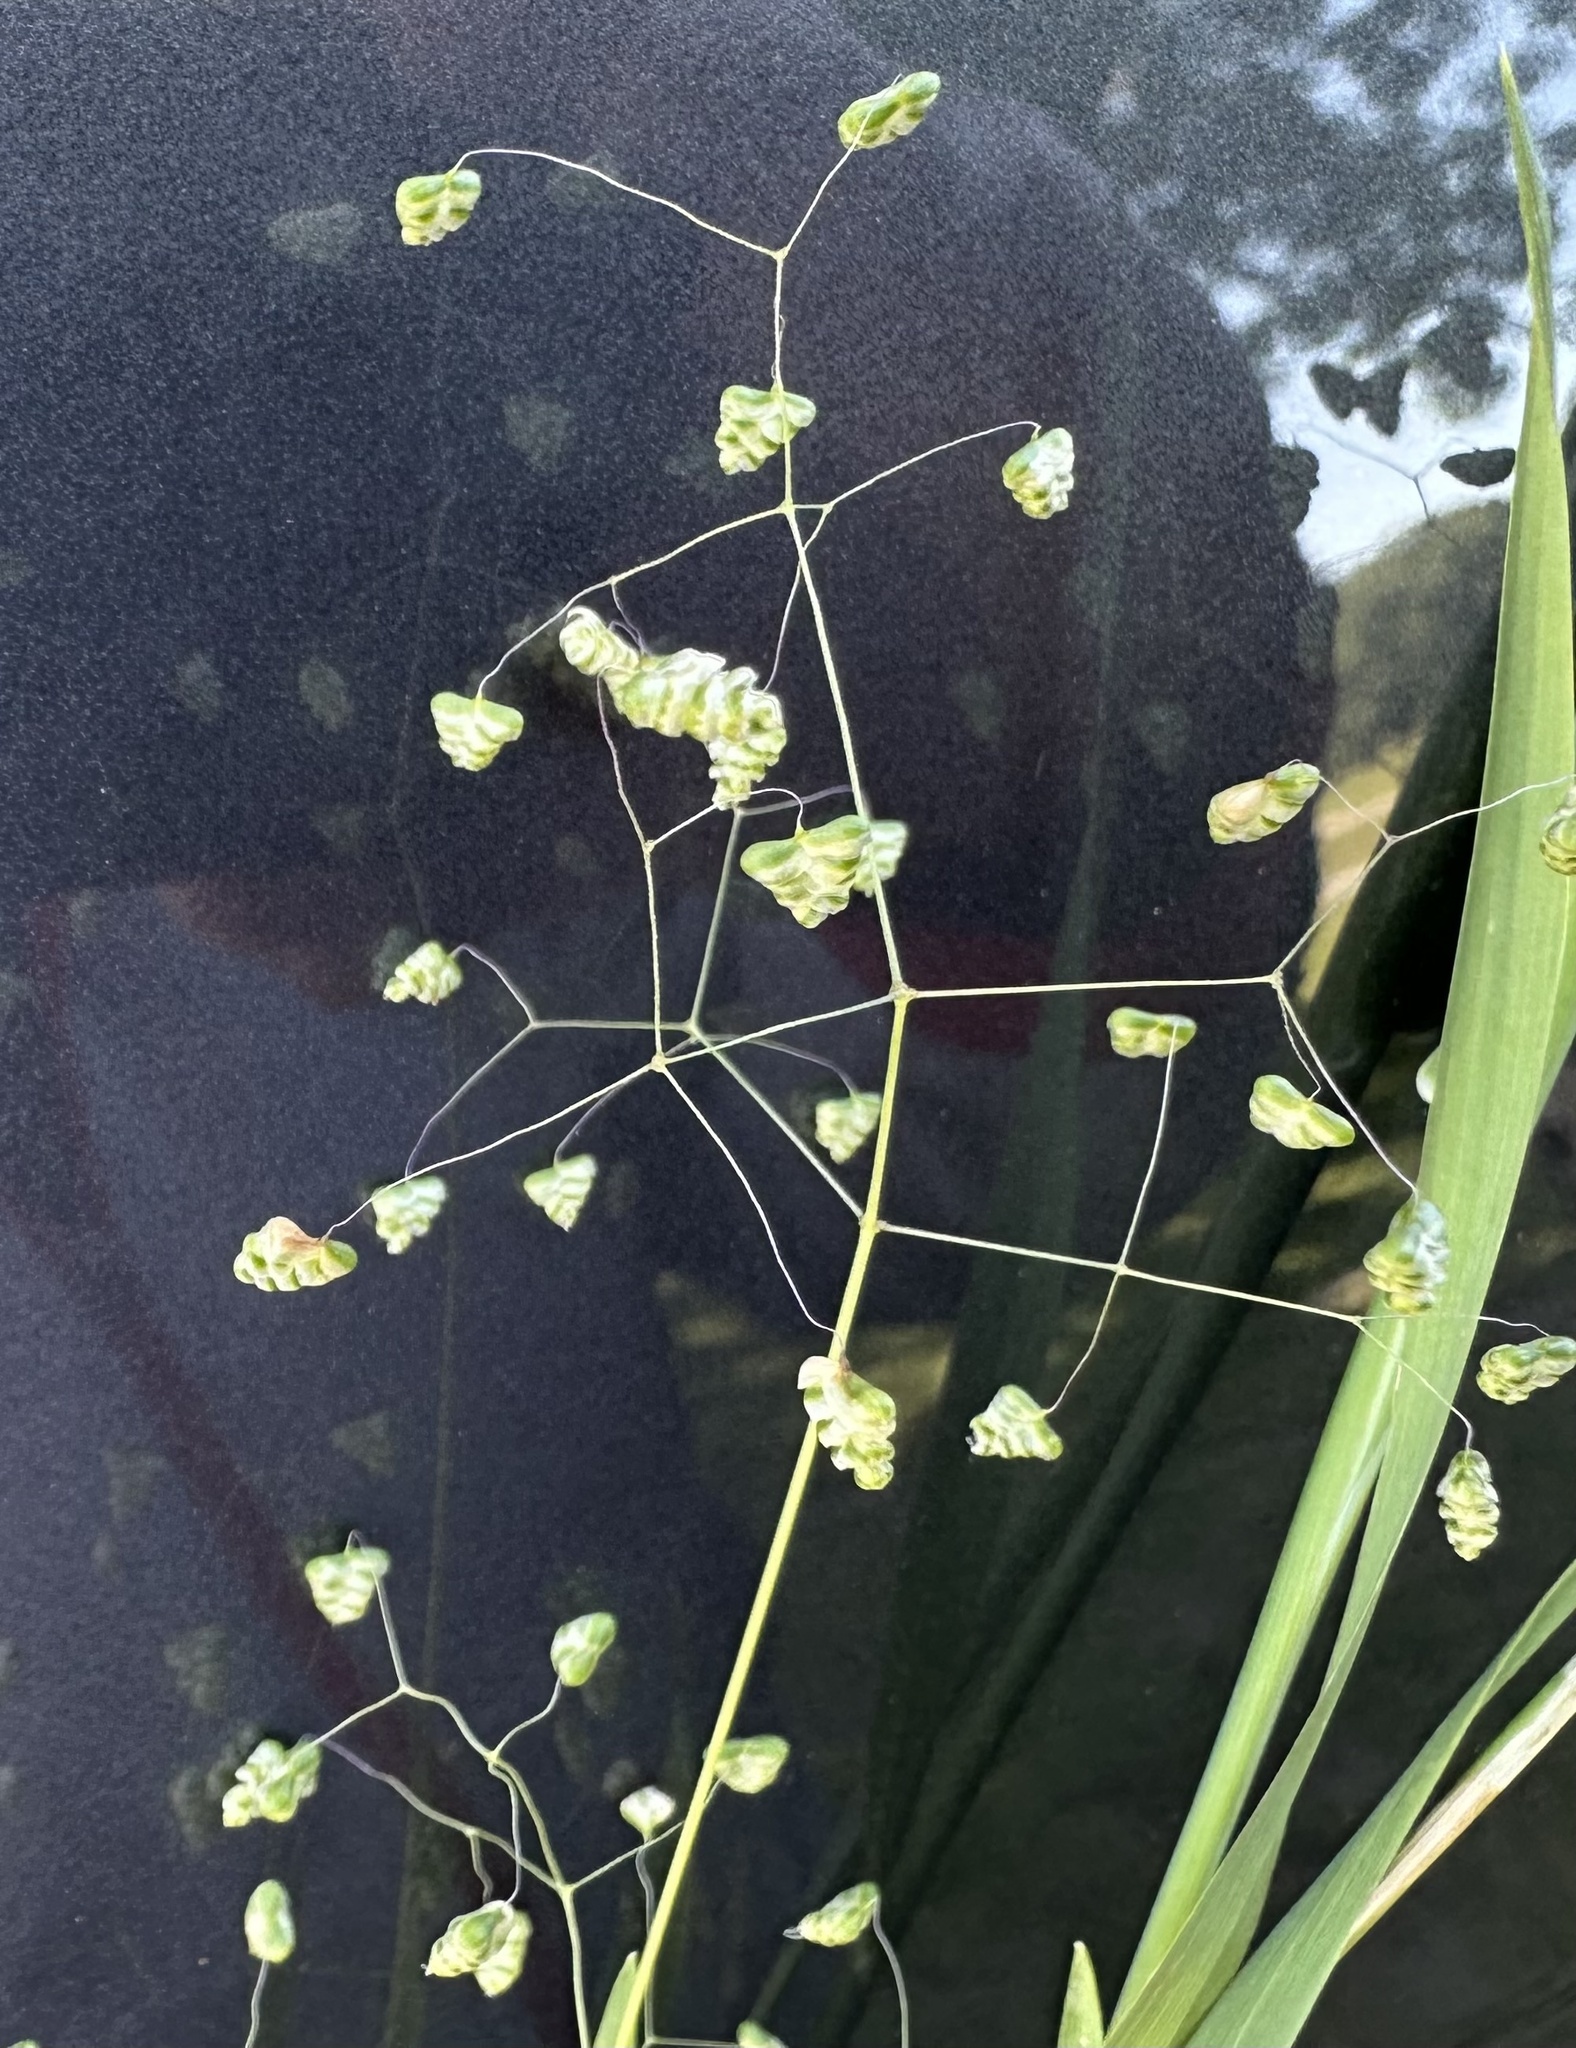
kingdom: Plantae
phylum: Tracheophyta
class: Liliopsida
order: Poales
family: Poaceae
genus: Briza
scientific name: Briza minor
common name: Lesser quaking-grass
